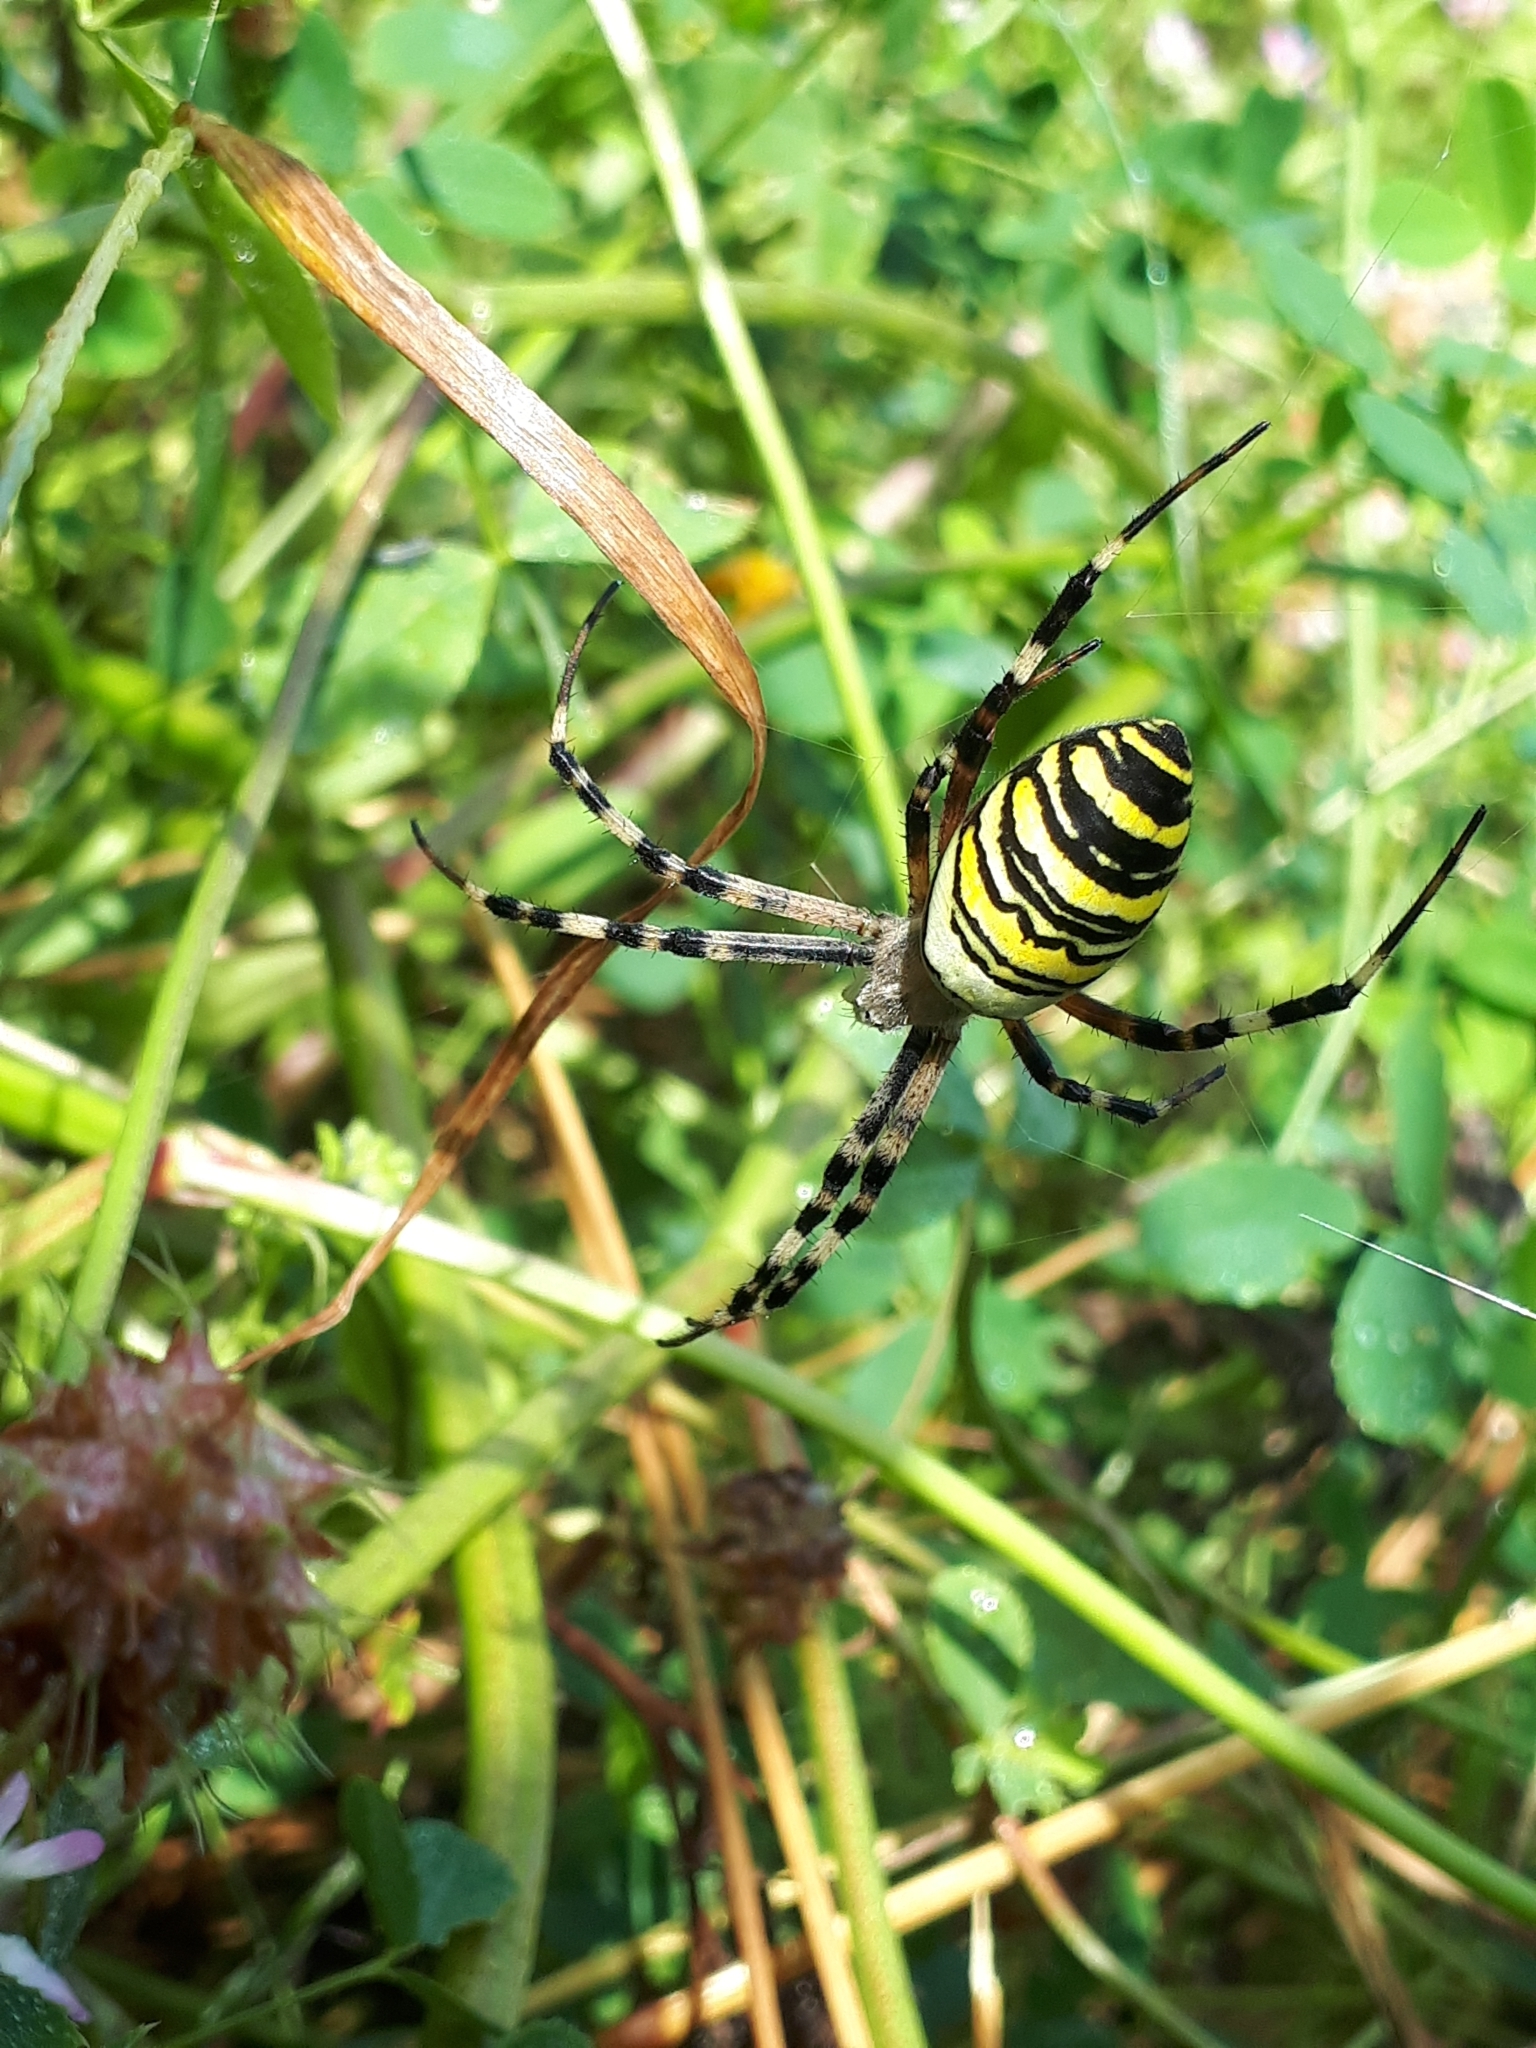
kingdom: Animalia
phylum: Arthropoda
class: Arachnida
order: Araneae
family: Araneidae
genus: Argiope
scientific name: Argiope bruennichi
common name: Wasp spider
